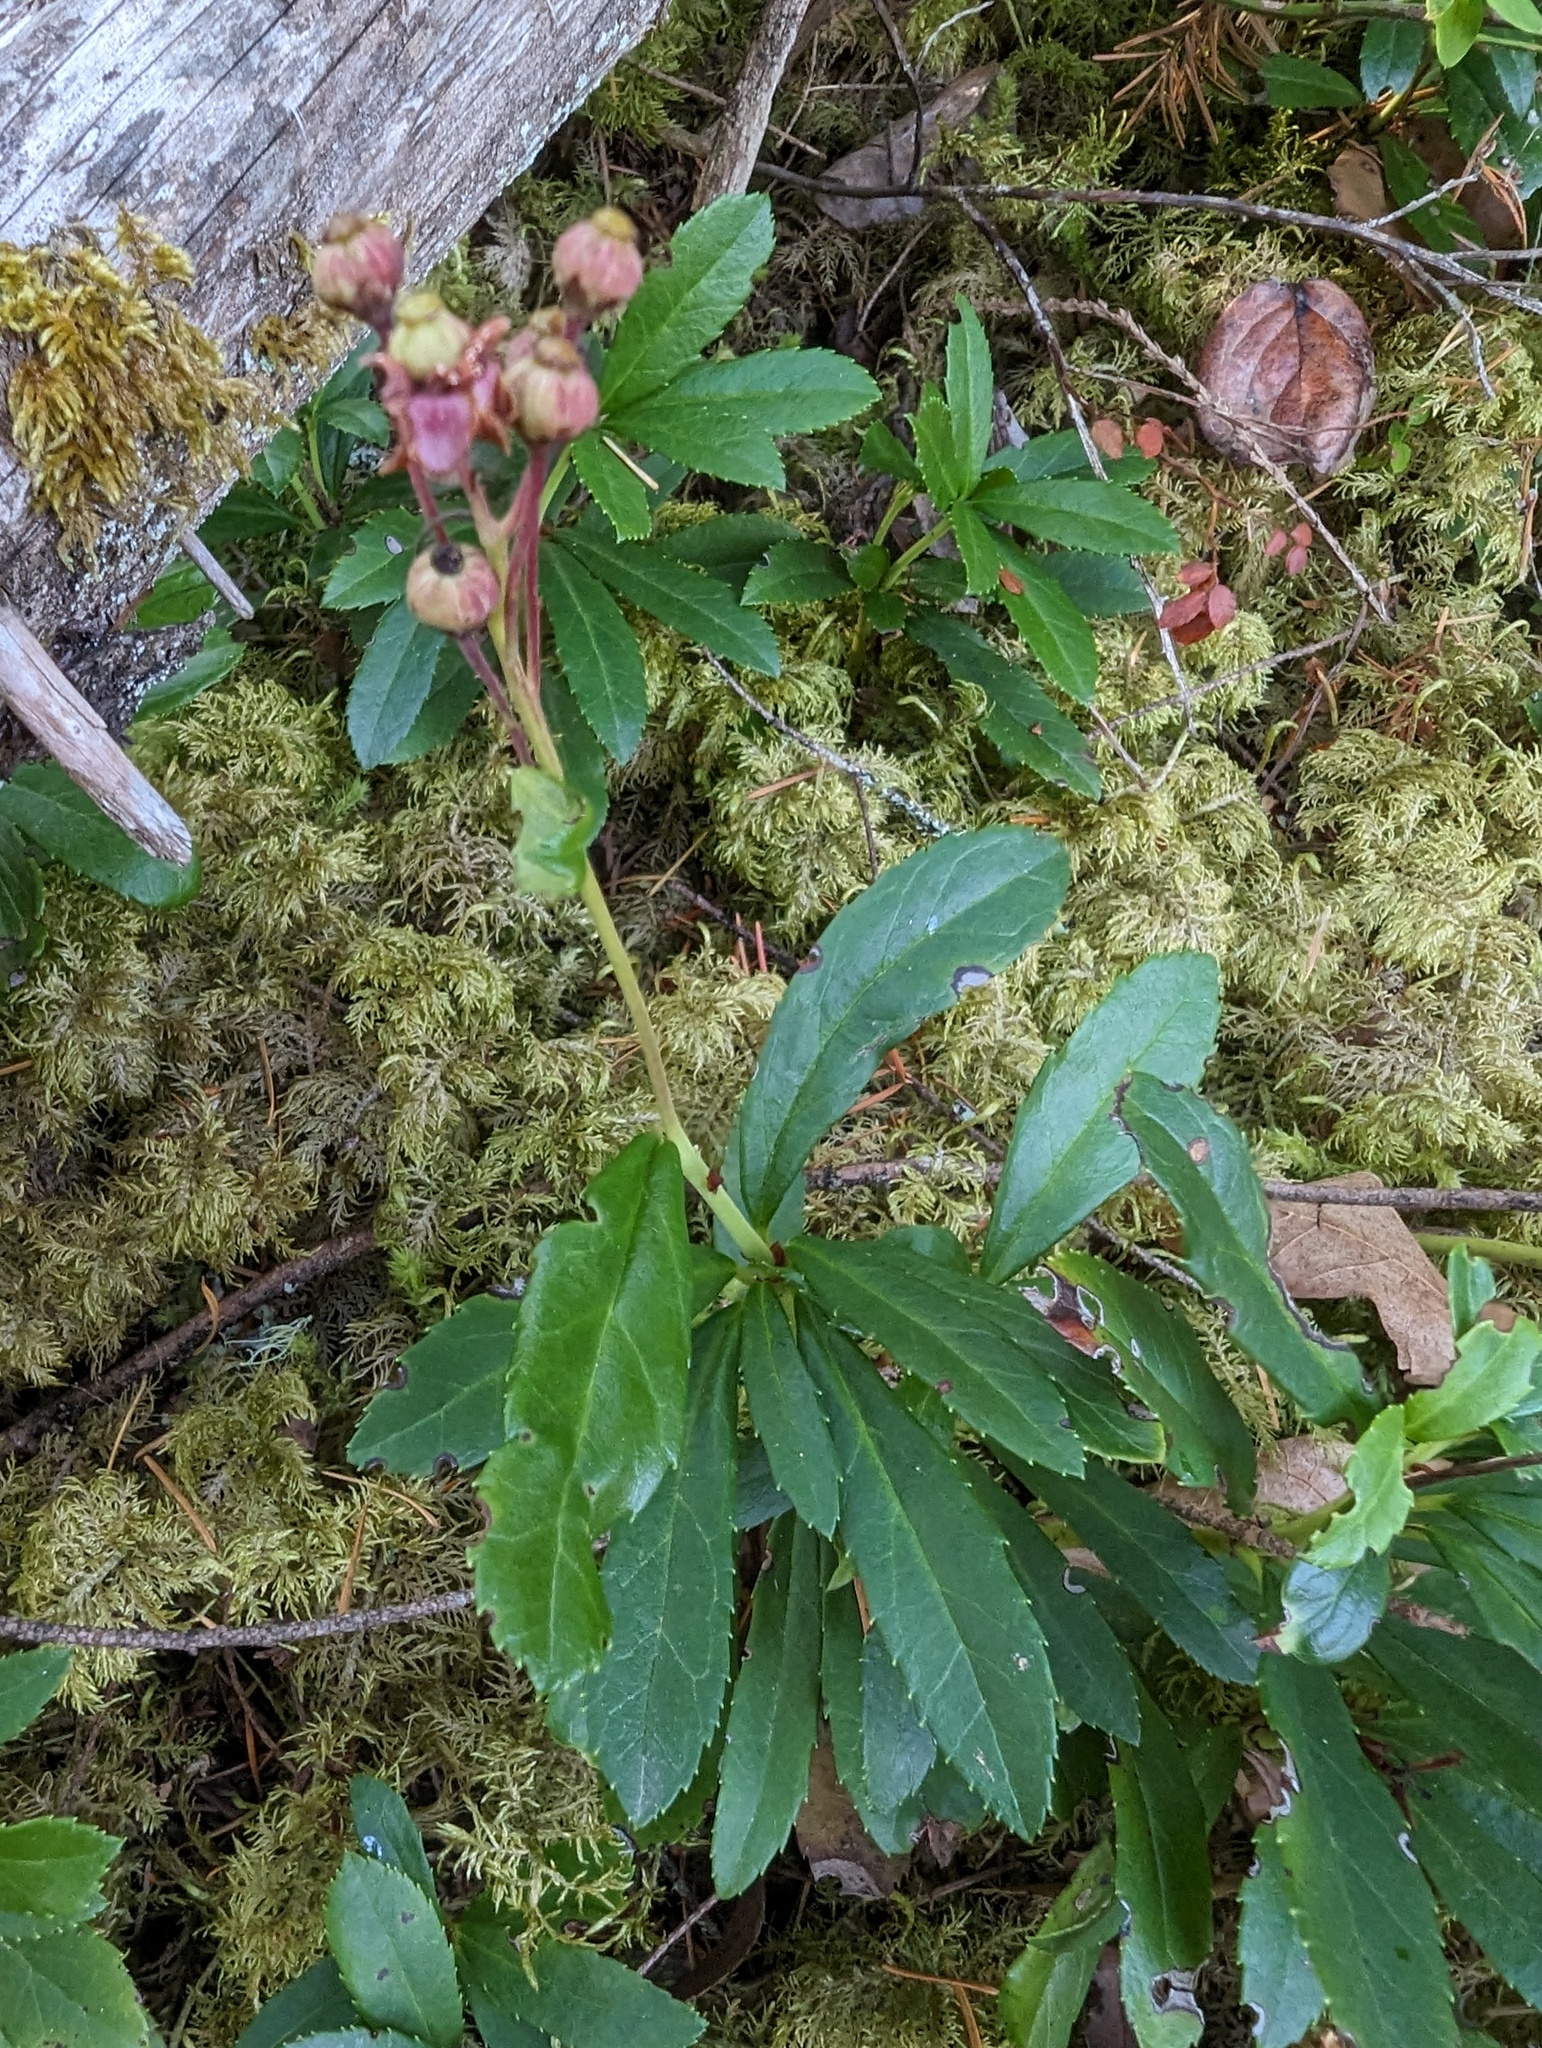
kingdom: Plantae
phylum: Tracheophyta
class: Magnoliopsida
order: Ericales
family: Ericaceae
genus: Chimaphila
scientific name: Chimaphila umbellata
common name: Pipsissewa
